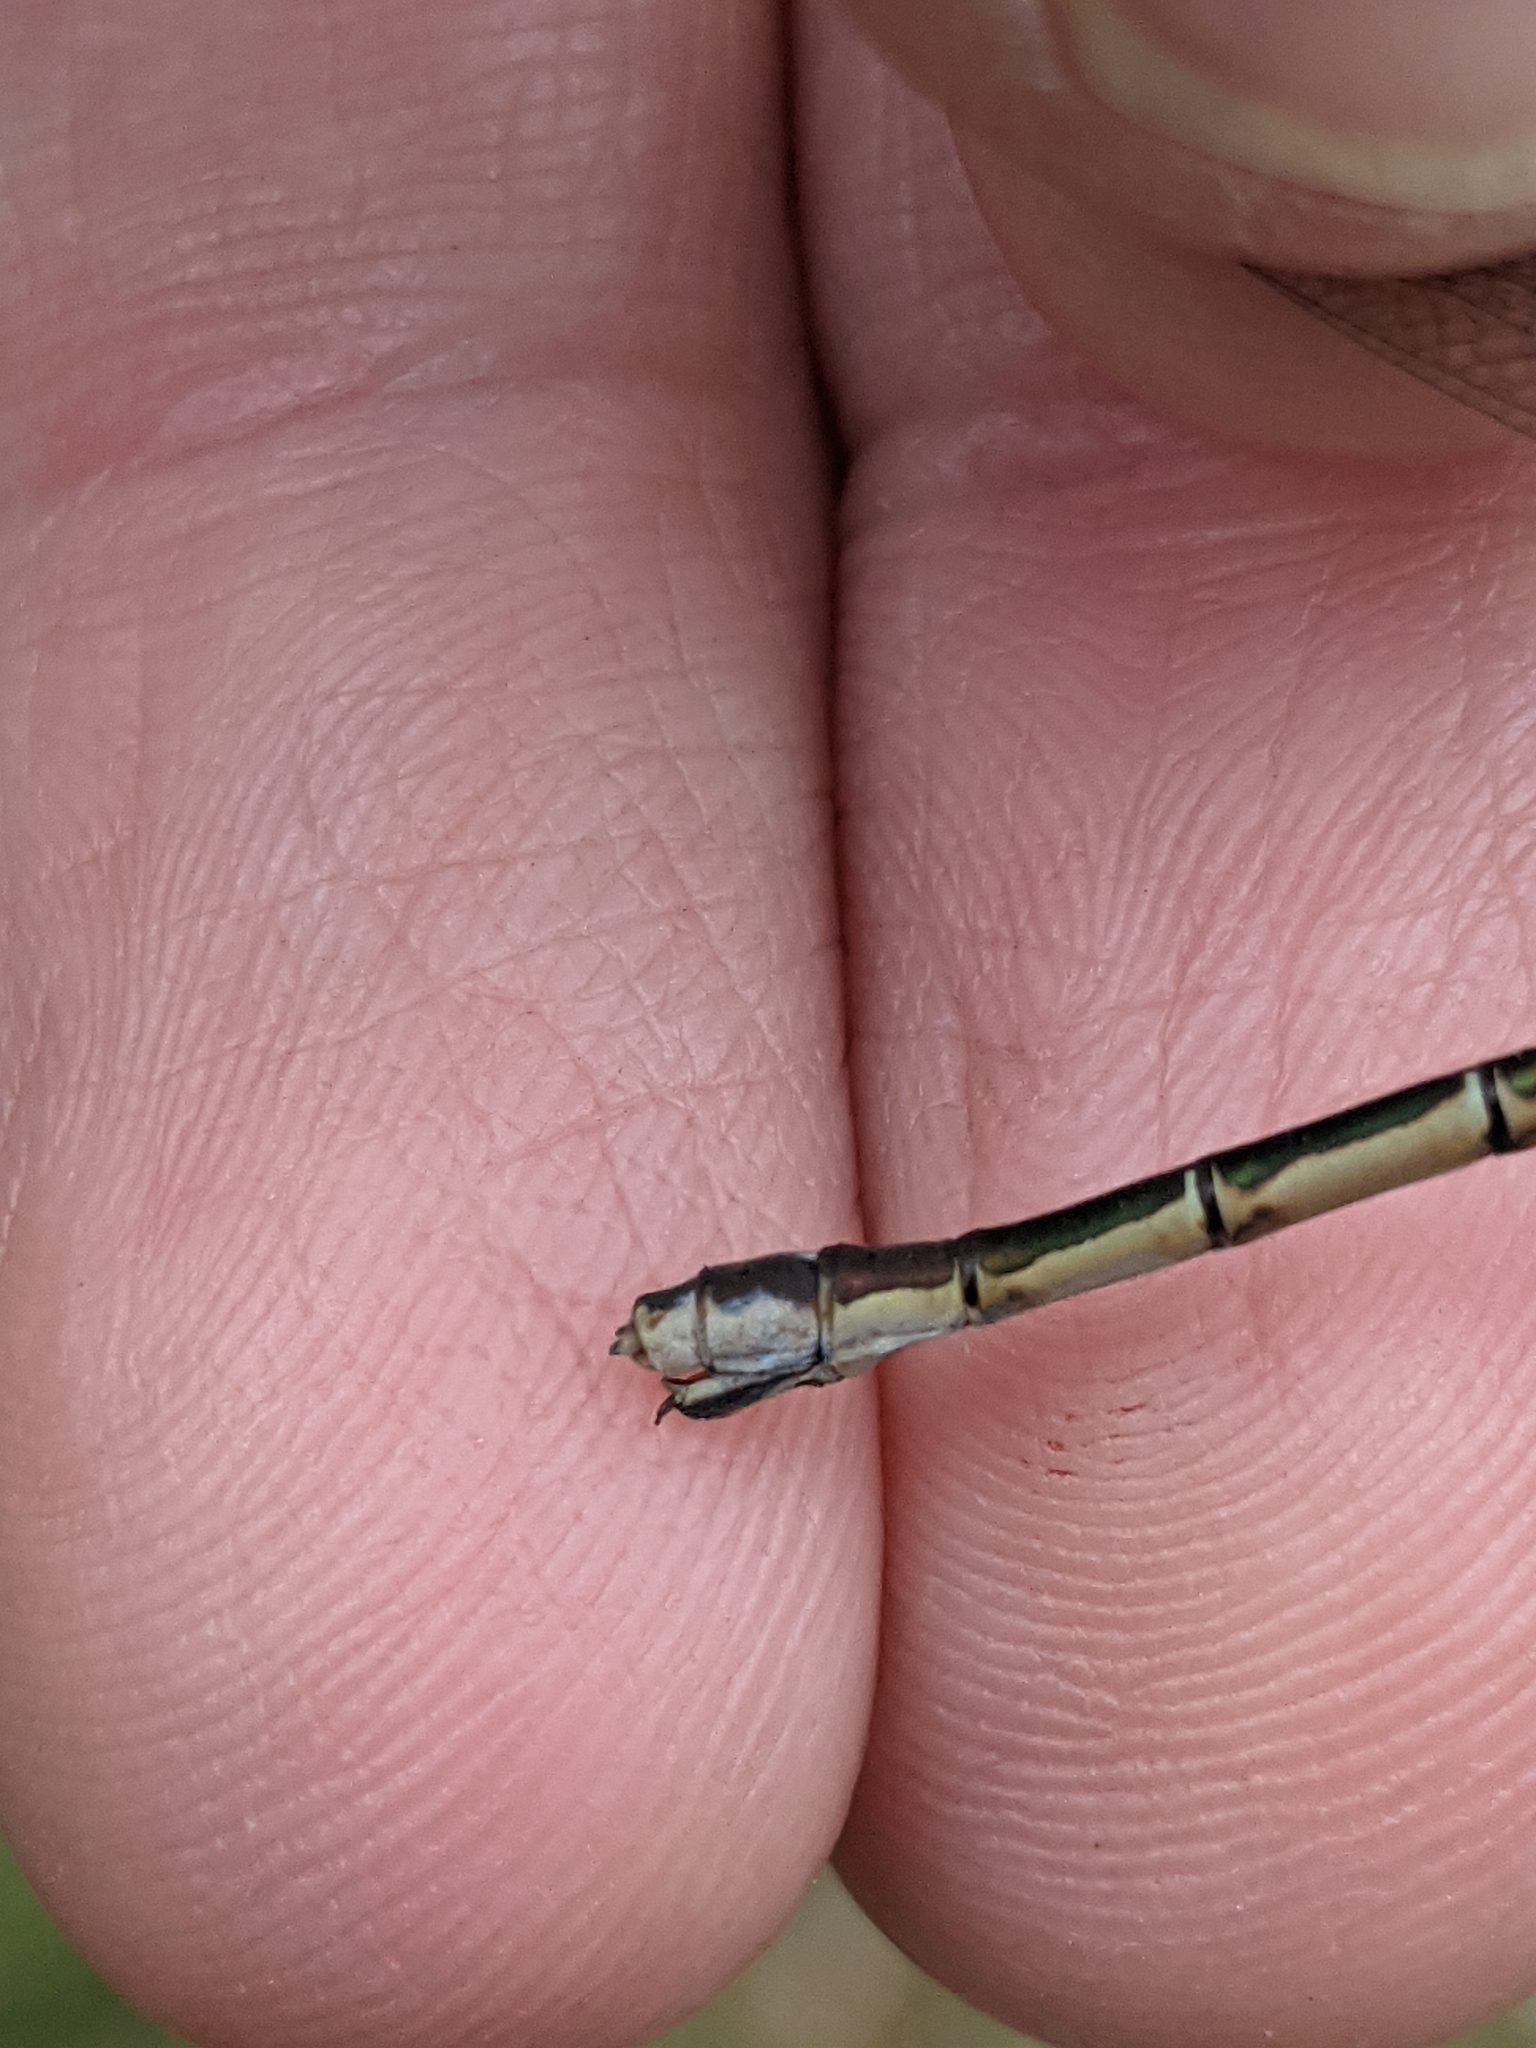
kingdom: Animalia
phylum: Arthropoda
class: Insecta
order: Odonata
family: Lestidae
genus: Lestes
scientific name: Lestes disjunctus
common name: Northern spreadwing
